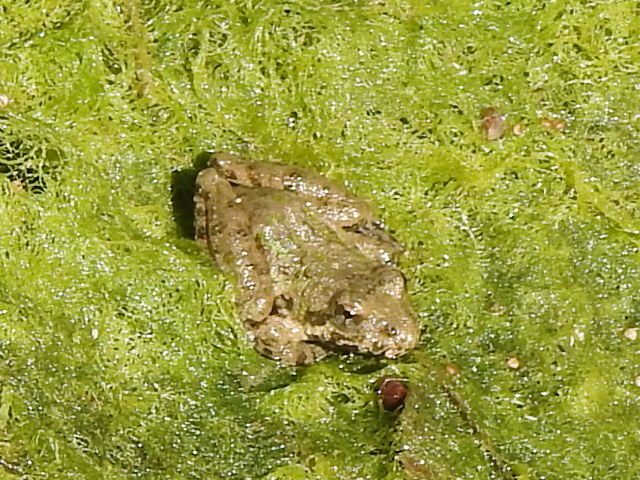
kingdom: Animalia
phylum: Chordata
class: Amphibia
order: Anura
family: Hylidae
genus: Acris
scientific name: Acris blanchardi
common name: Blanchard's cricket frog
